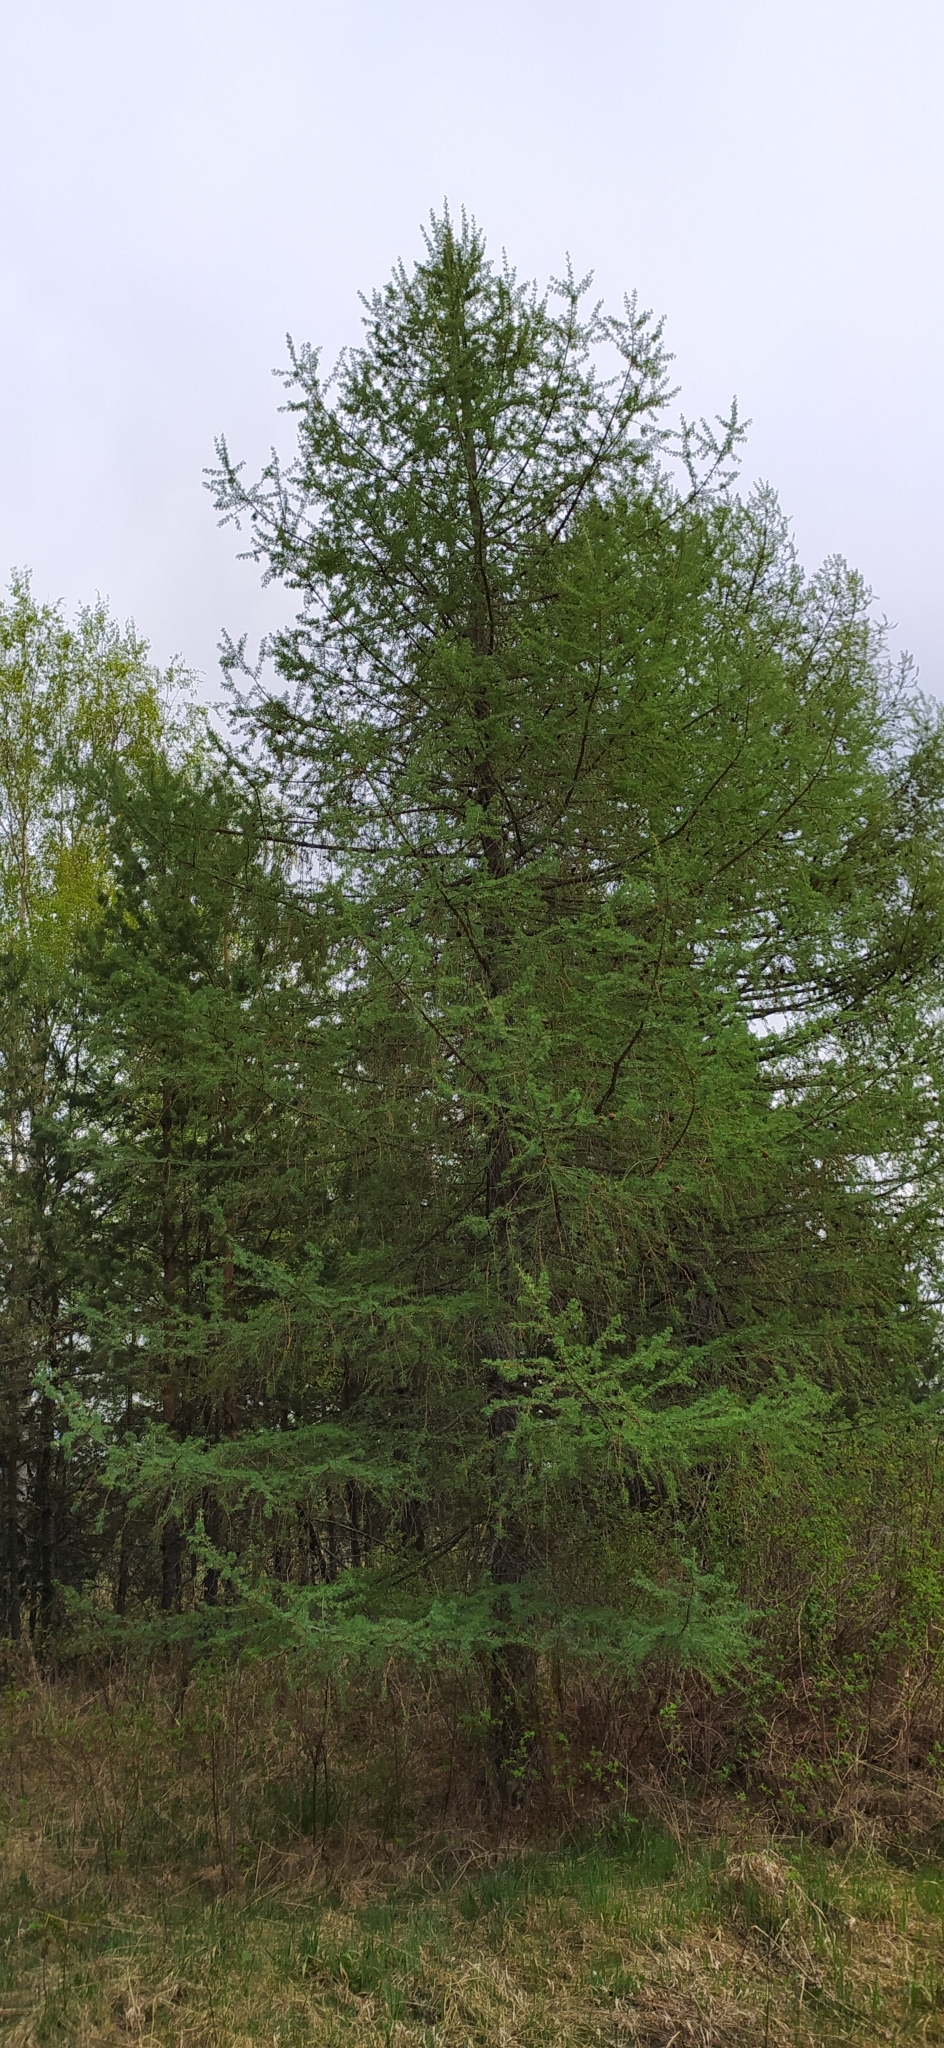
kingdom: Plantae
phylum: Tracheophyta
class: Pinopsida
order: Pinales
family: Pinaceae
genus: Larix
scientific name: Larix sibirica
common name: Siberian larch
